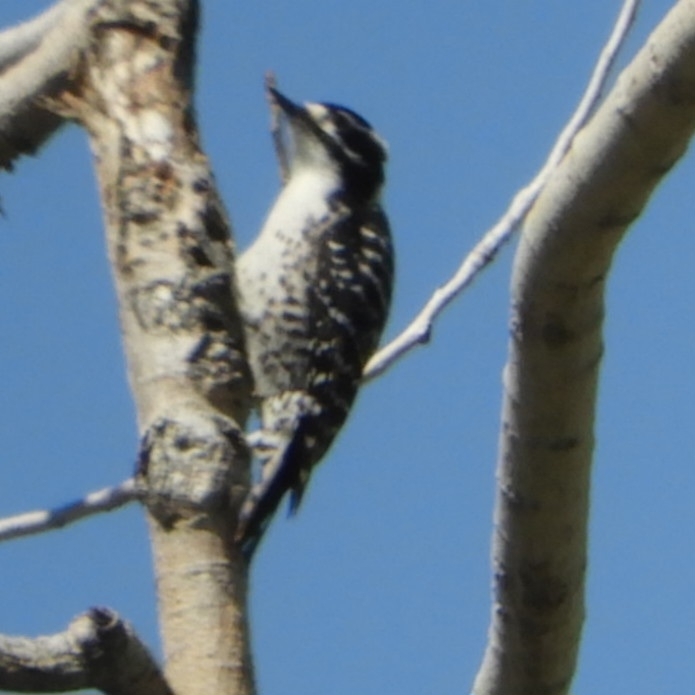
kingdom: Animalia
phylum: Chordata
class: Aves
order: Piciformes
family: Picidae
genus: Dryobates
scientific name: Dryobates nuttallii
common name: Nuttall's woodpecker
